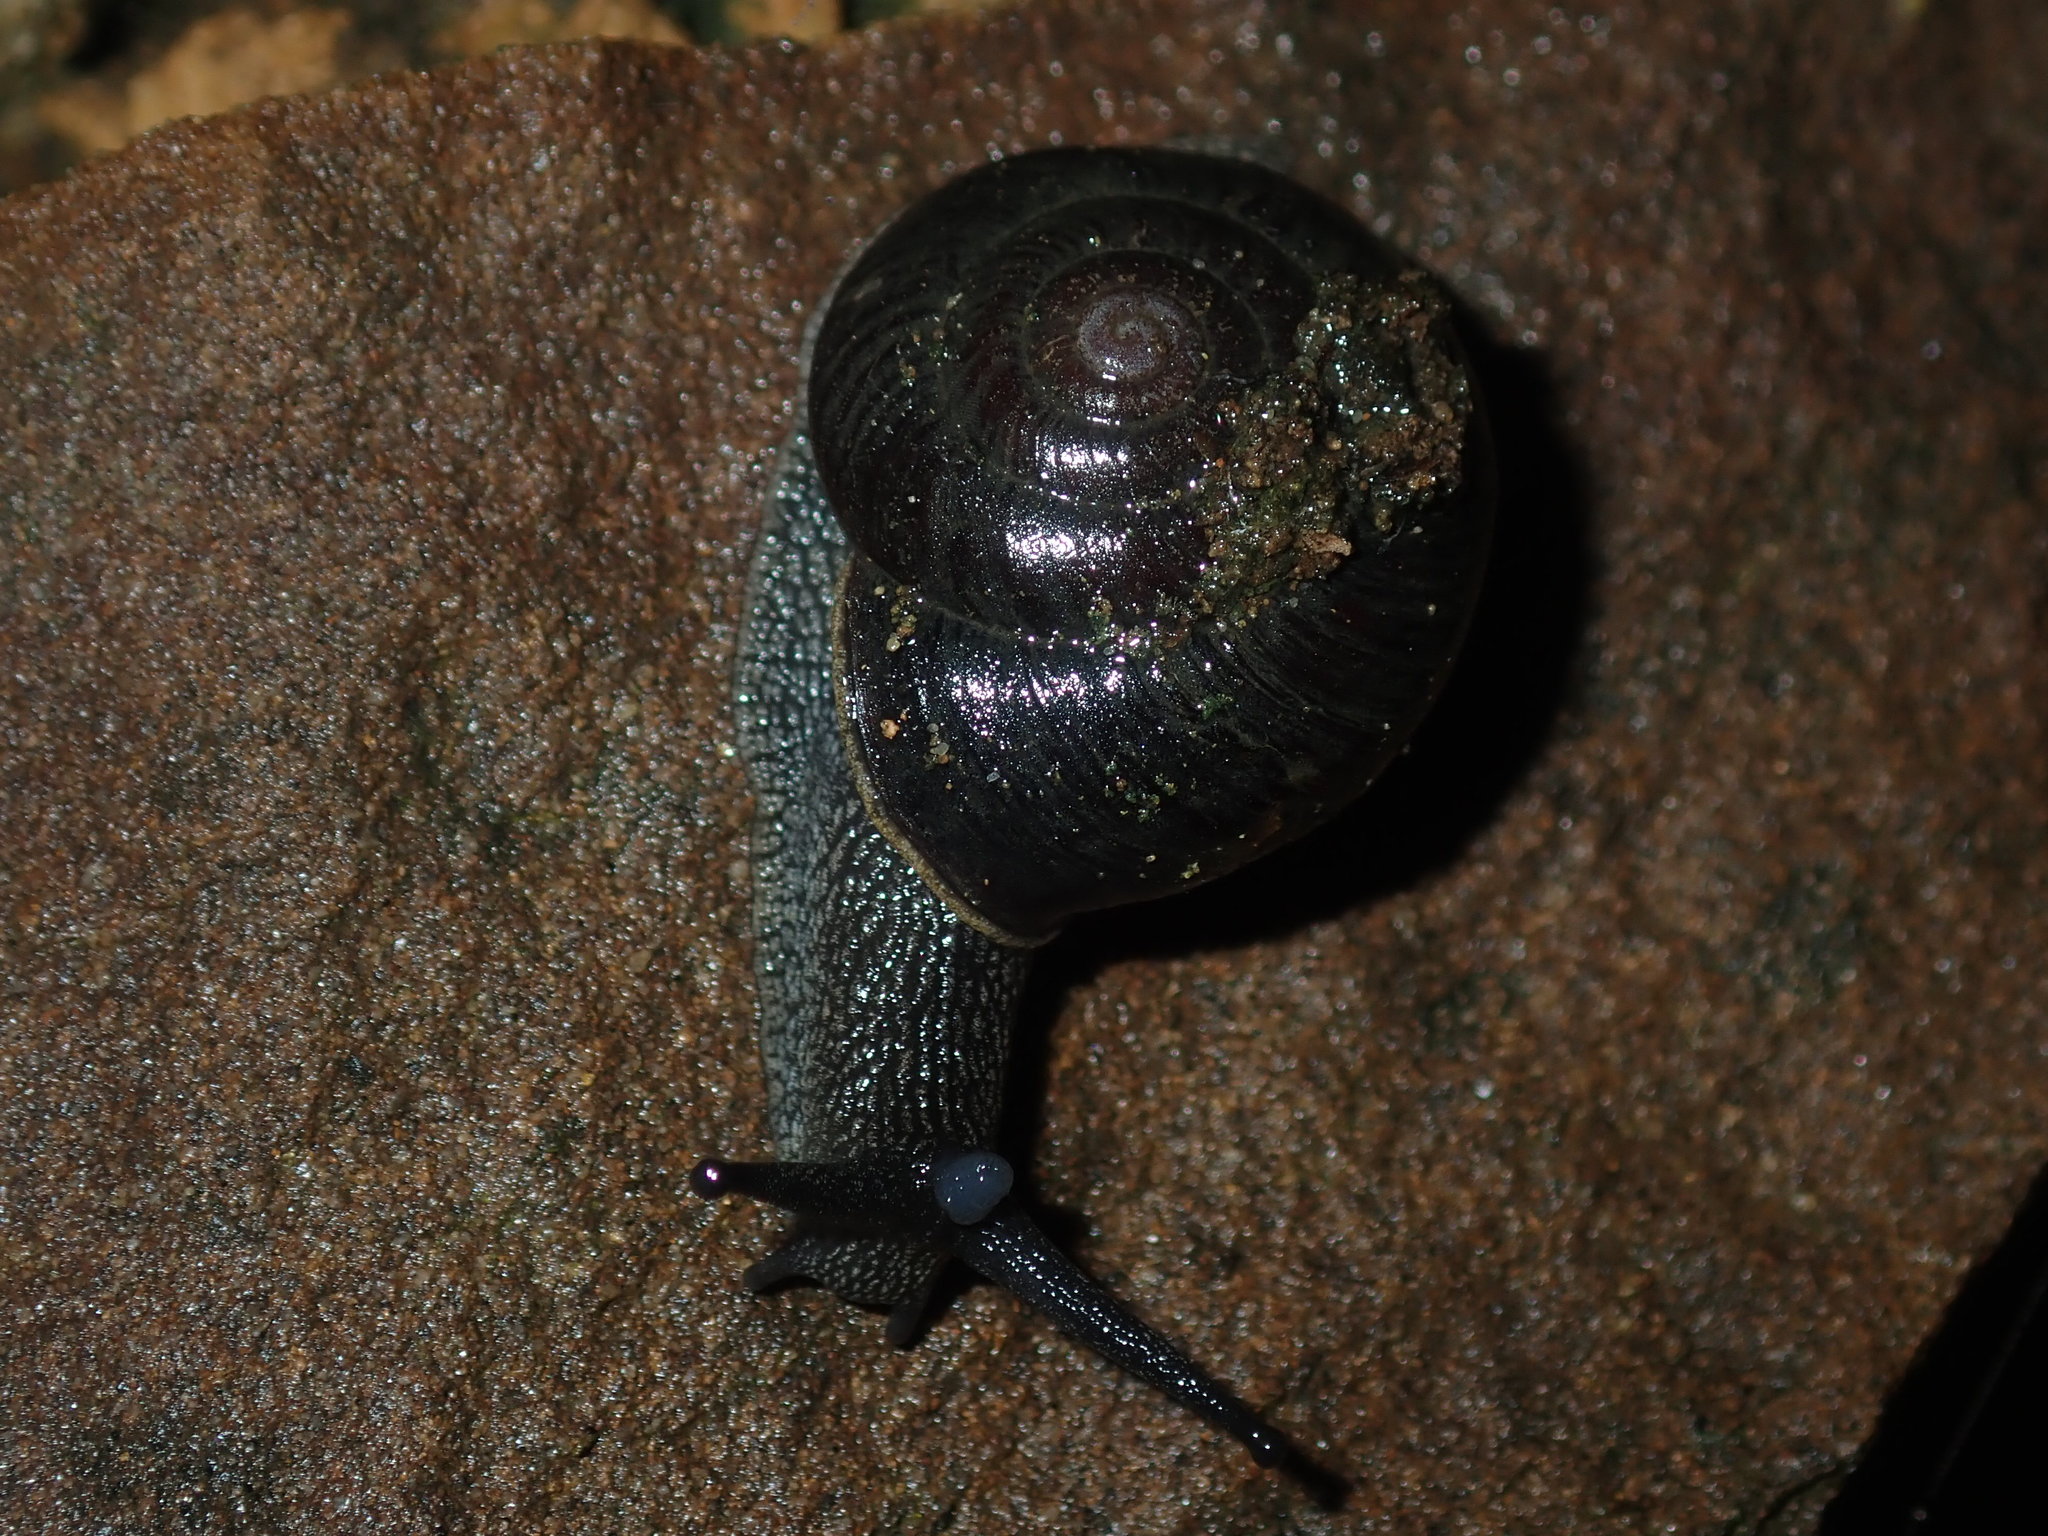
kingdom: Animalia
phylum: Mollusca
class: Gastropoda
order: Stylommatophora
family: Camaenidae
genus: Pommerhelix
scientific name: Pommerhelix monacha
